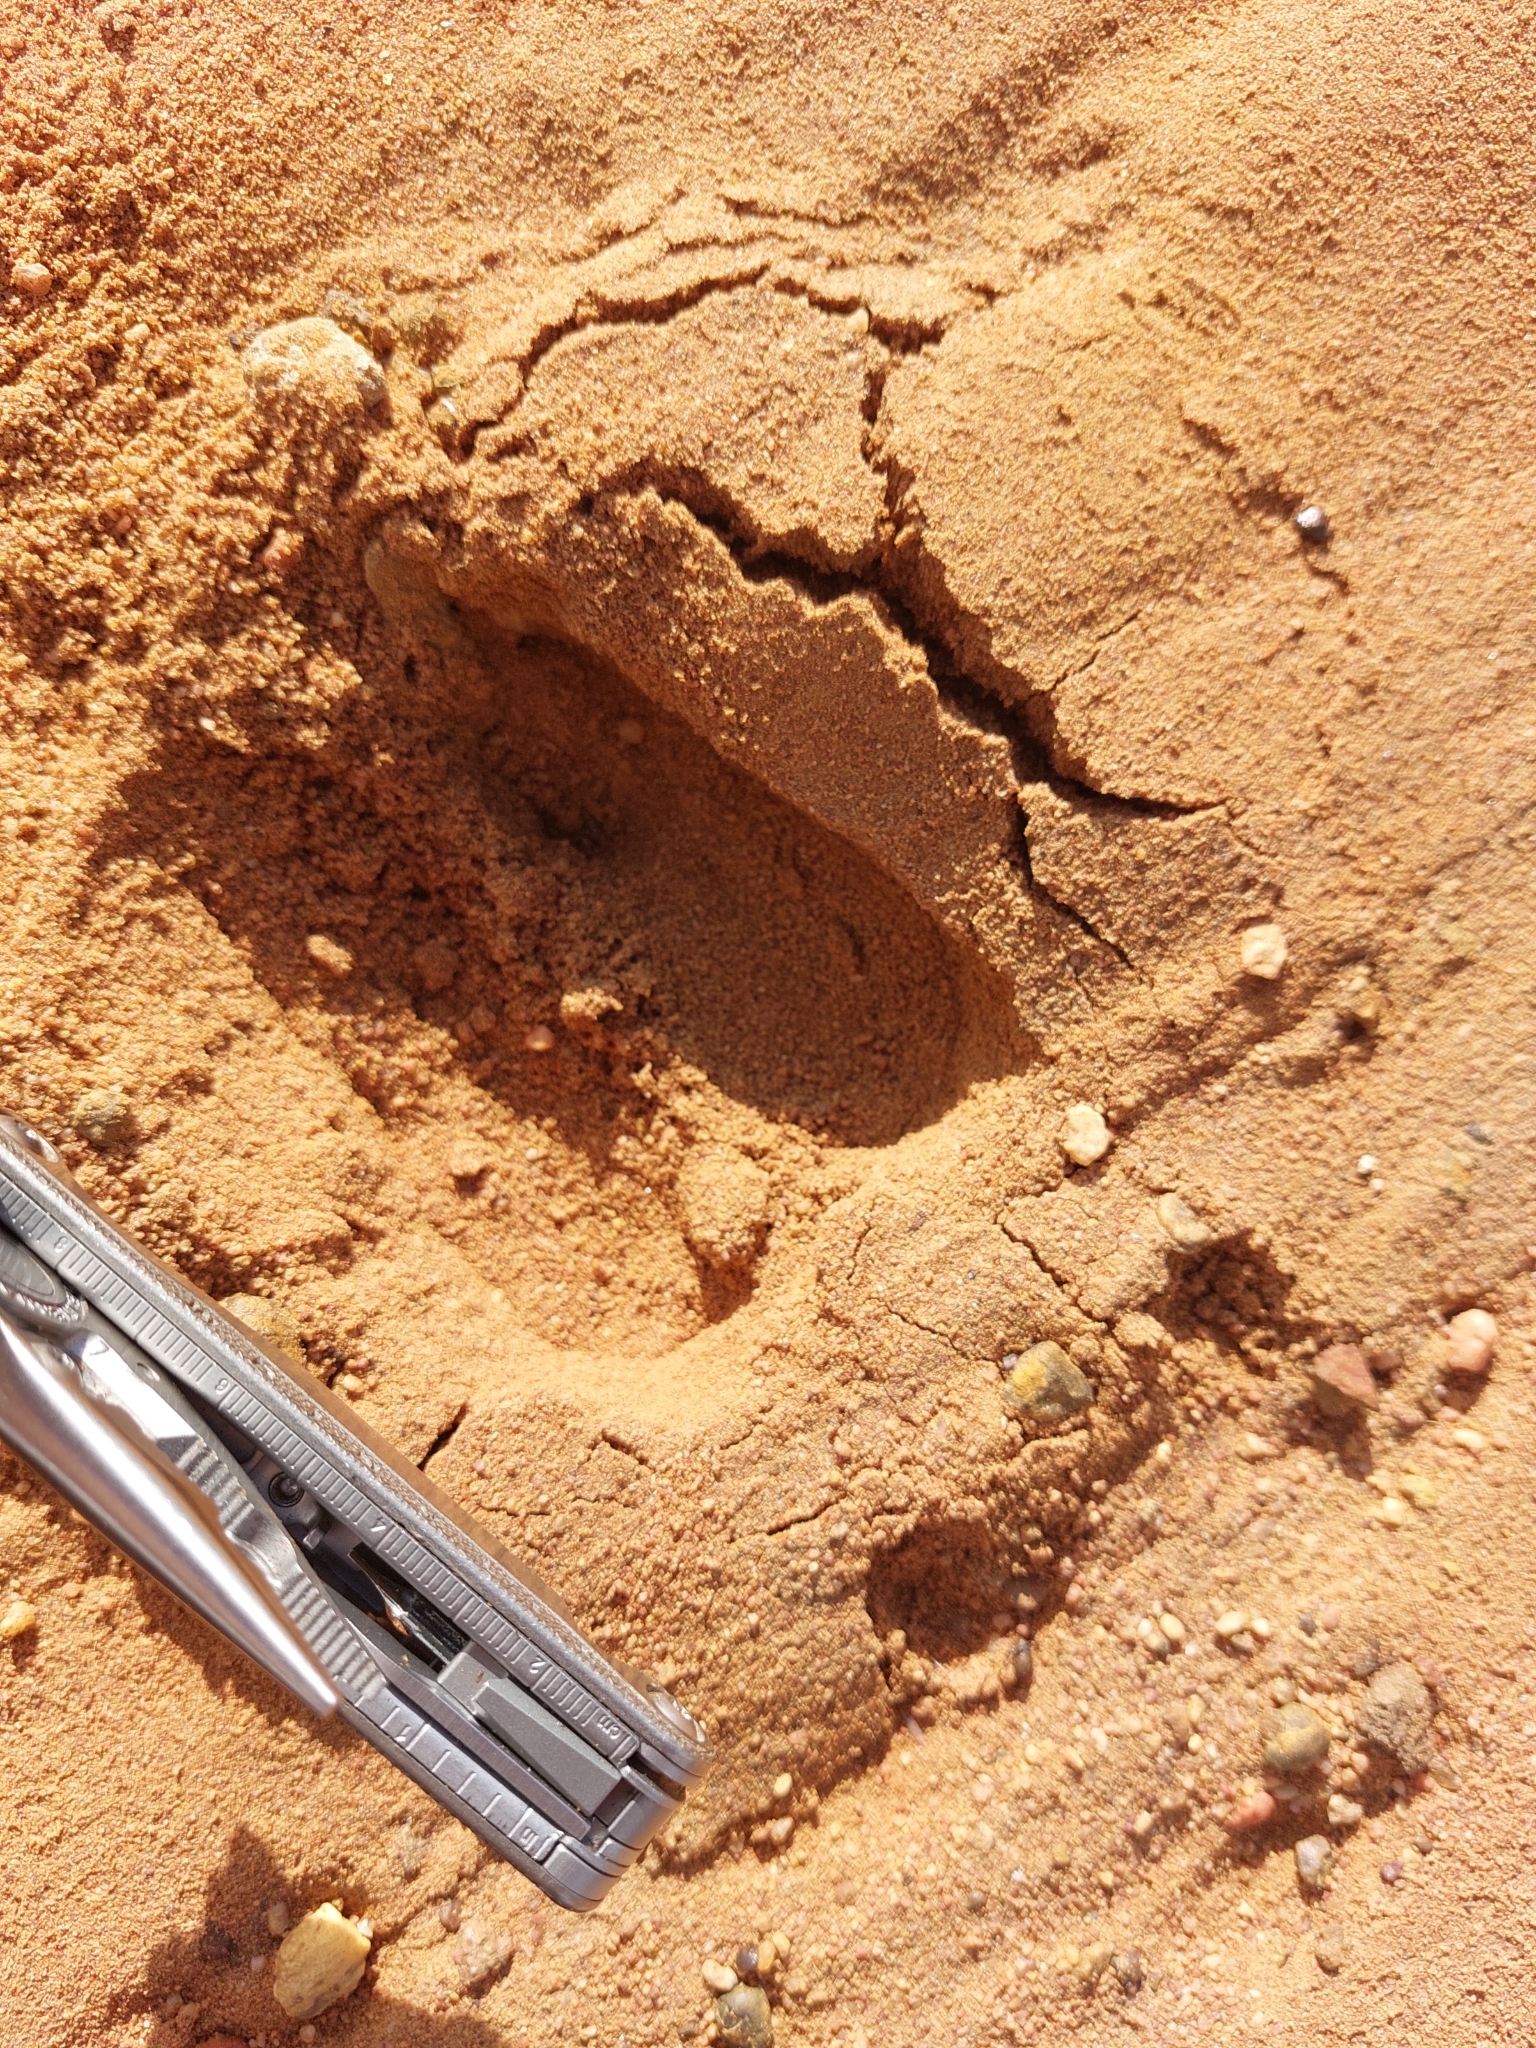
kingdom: Animalia
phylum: Chordata
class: Mammalia
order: Artiodactyla
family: Bovidae
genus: Connochaetes
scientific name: Connochaetes taurinus
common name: Blue wildebeest
